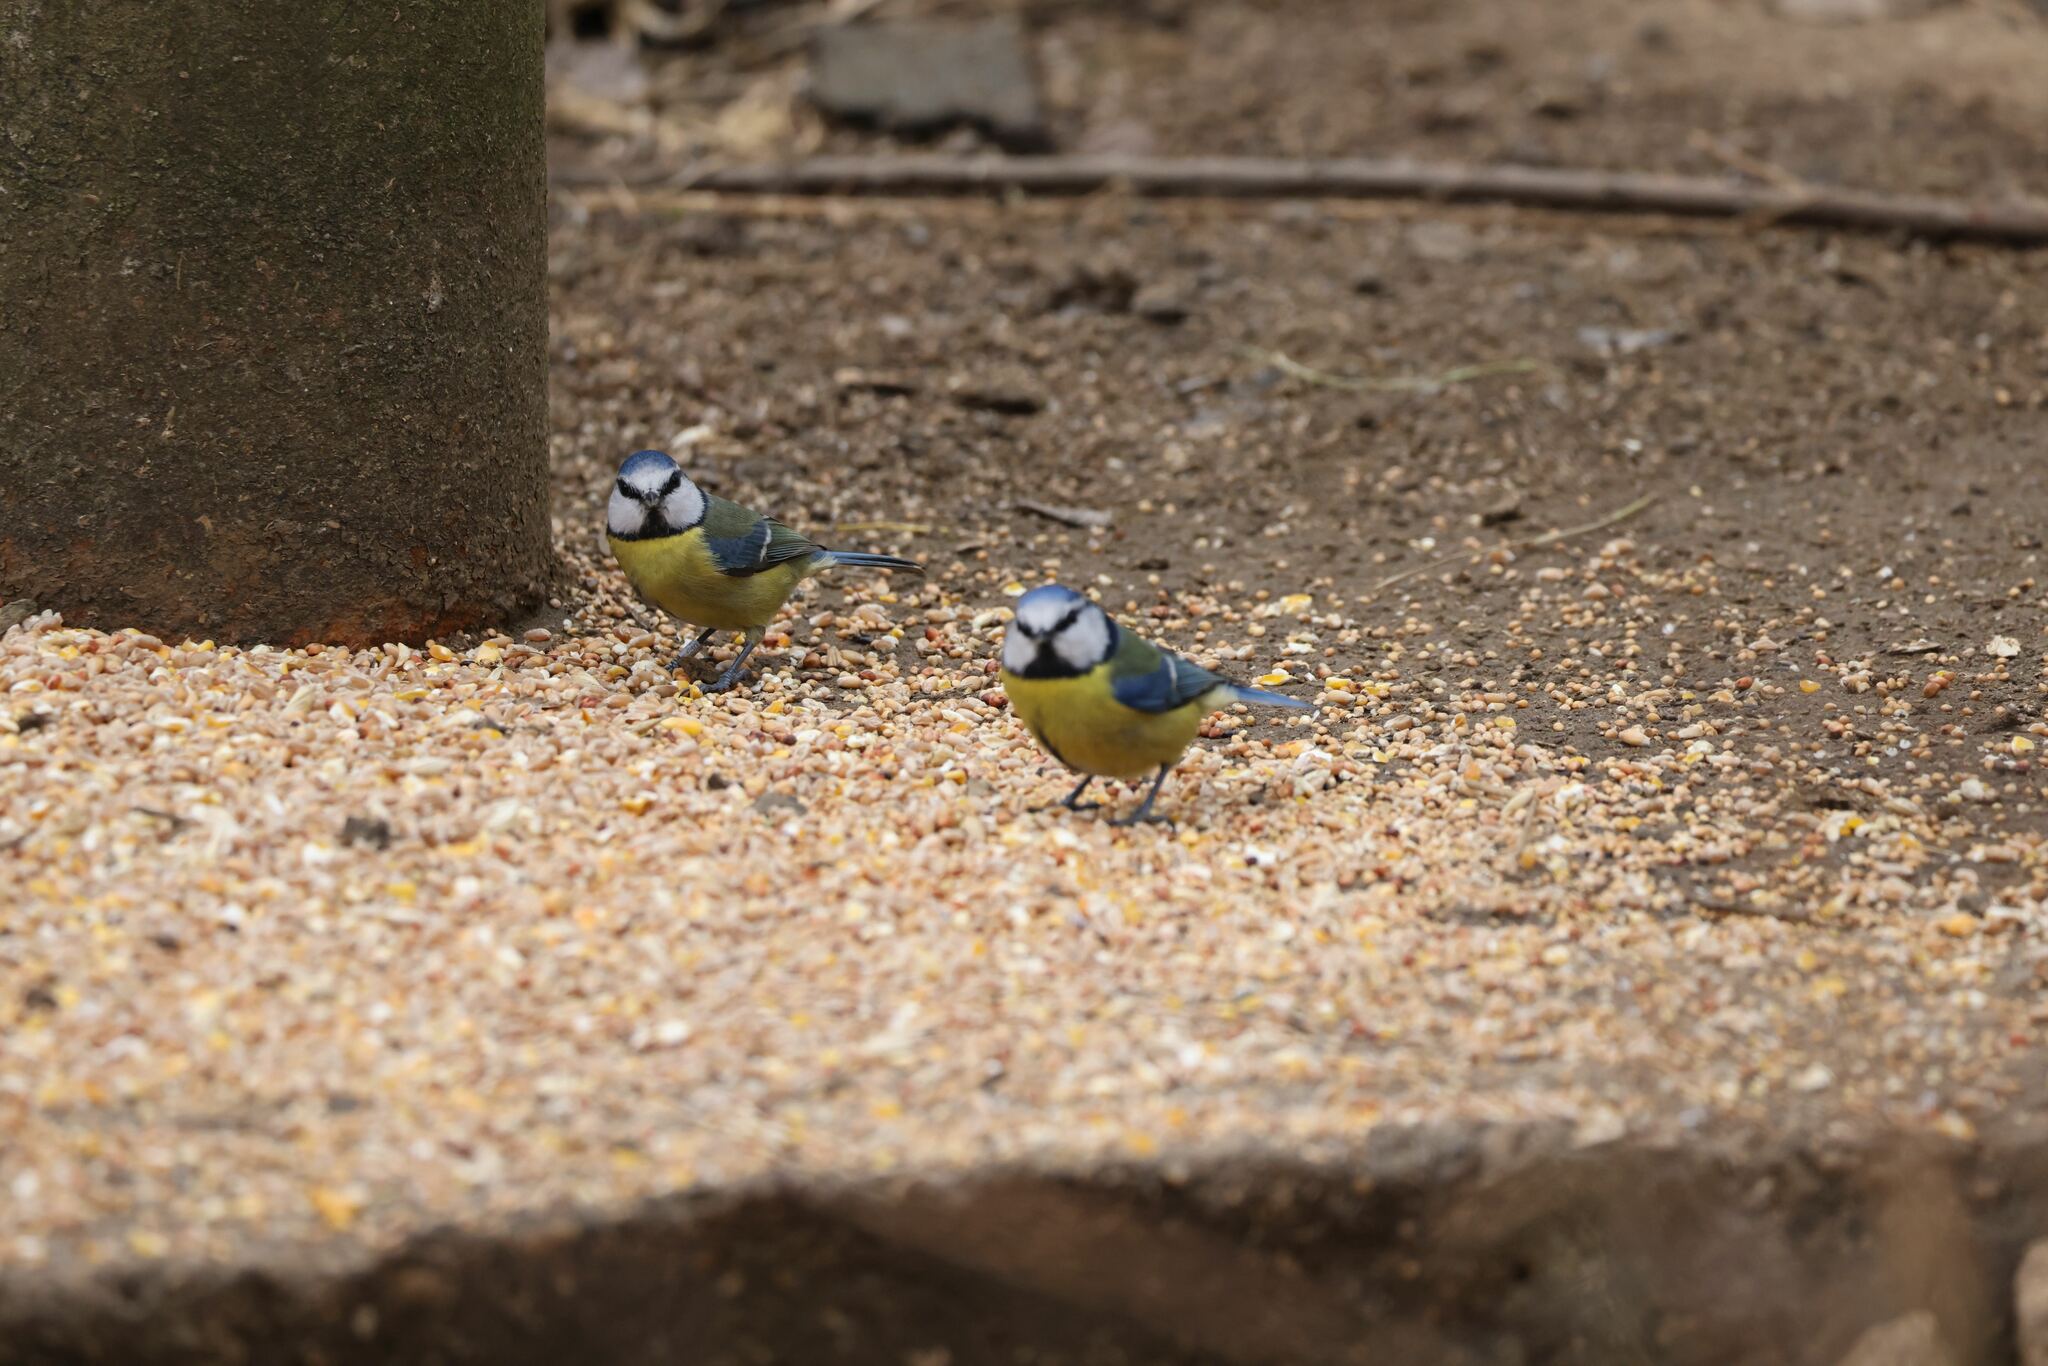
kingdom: Animalia
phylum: Chordata
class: Aves
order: Passeriformes
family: Paridae
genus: Cyanistes
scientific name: Cyanistes caeruleus
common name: Eurasian blue tit
